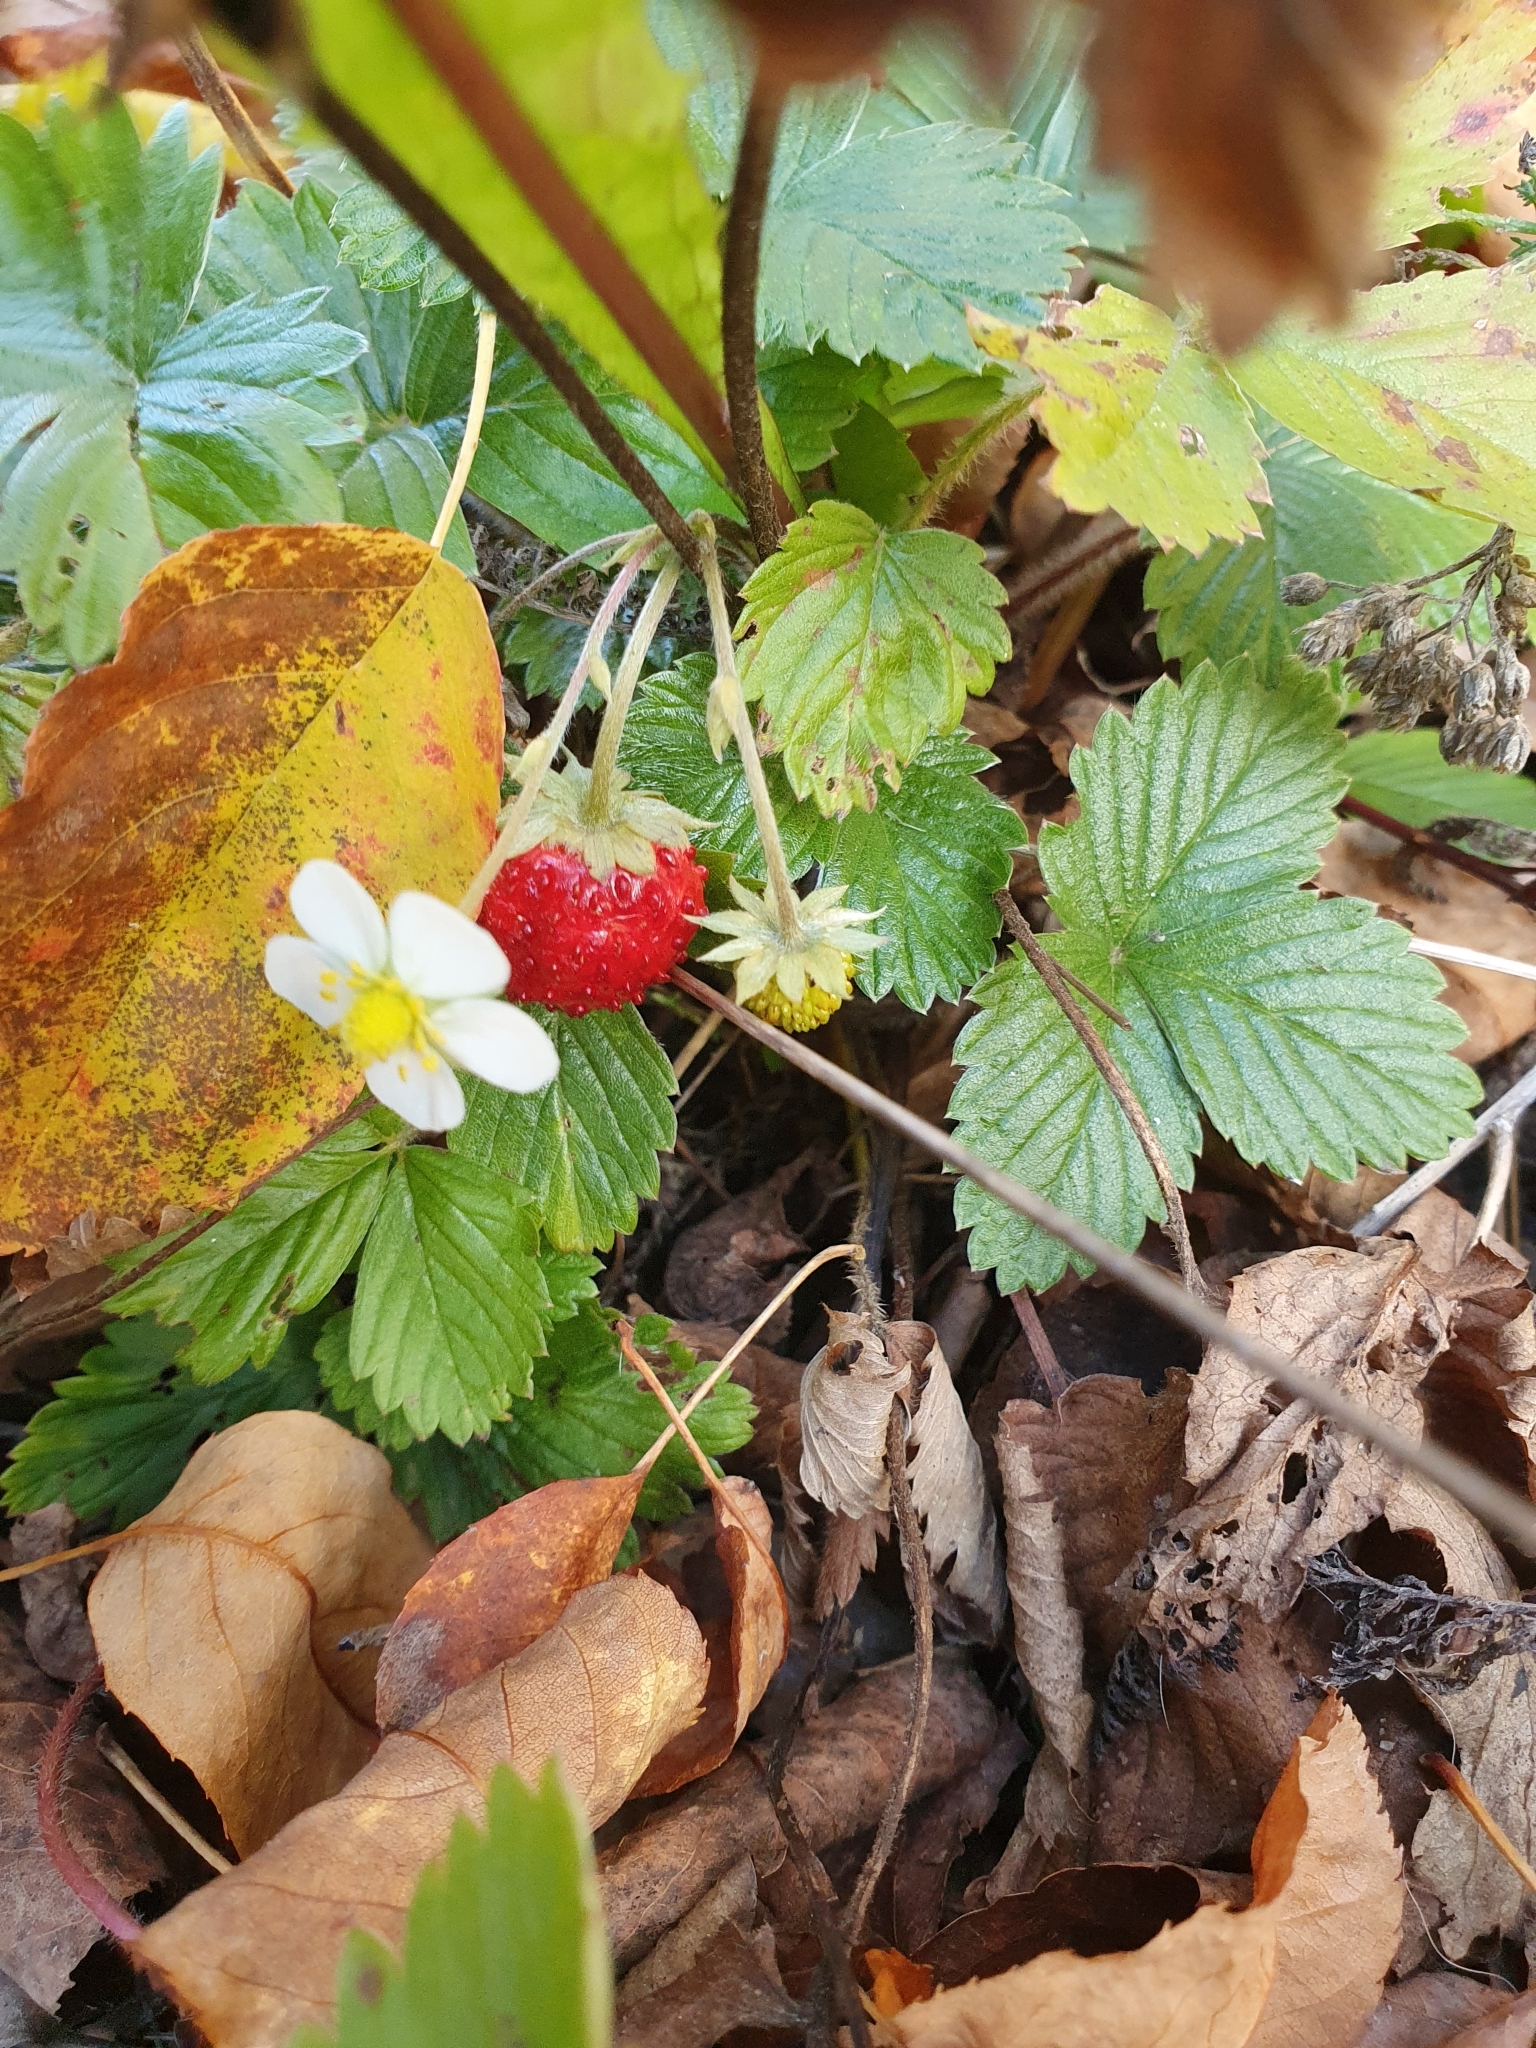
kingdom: Plantae
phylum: Tracheophyta
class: Magnoliopsida
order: Rosales
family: Rosaceae
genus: Fragaria
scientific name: Fragaria vesca
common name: Wild strawberry
